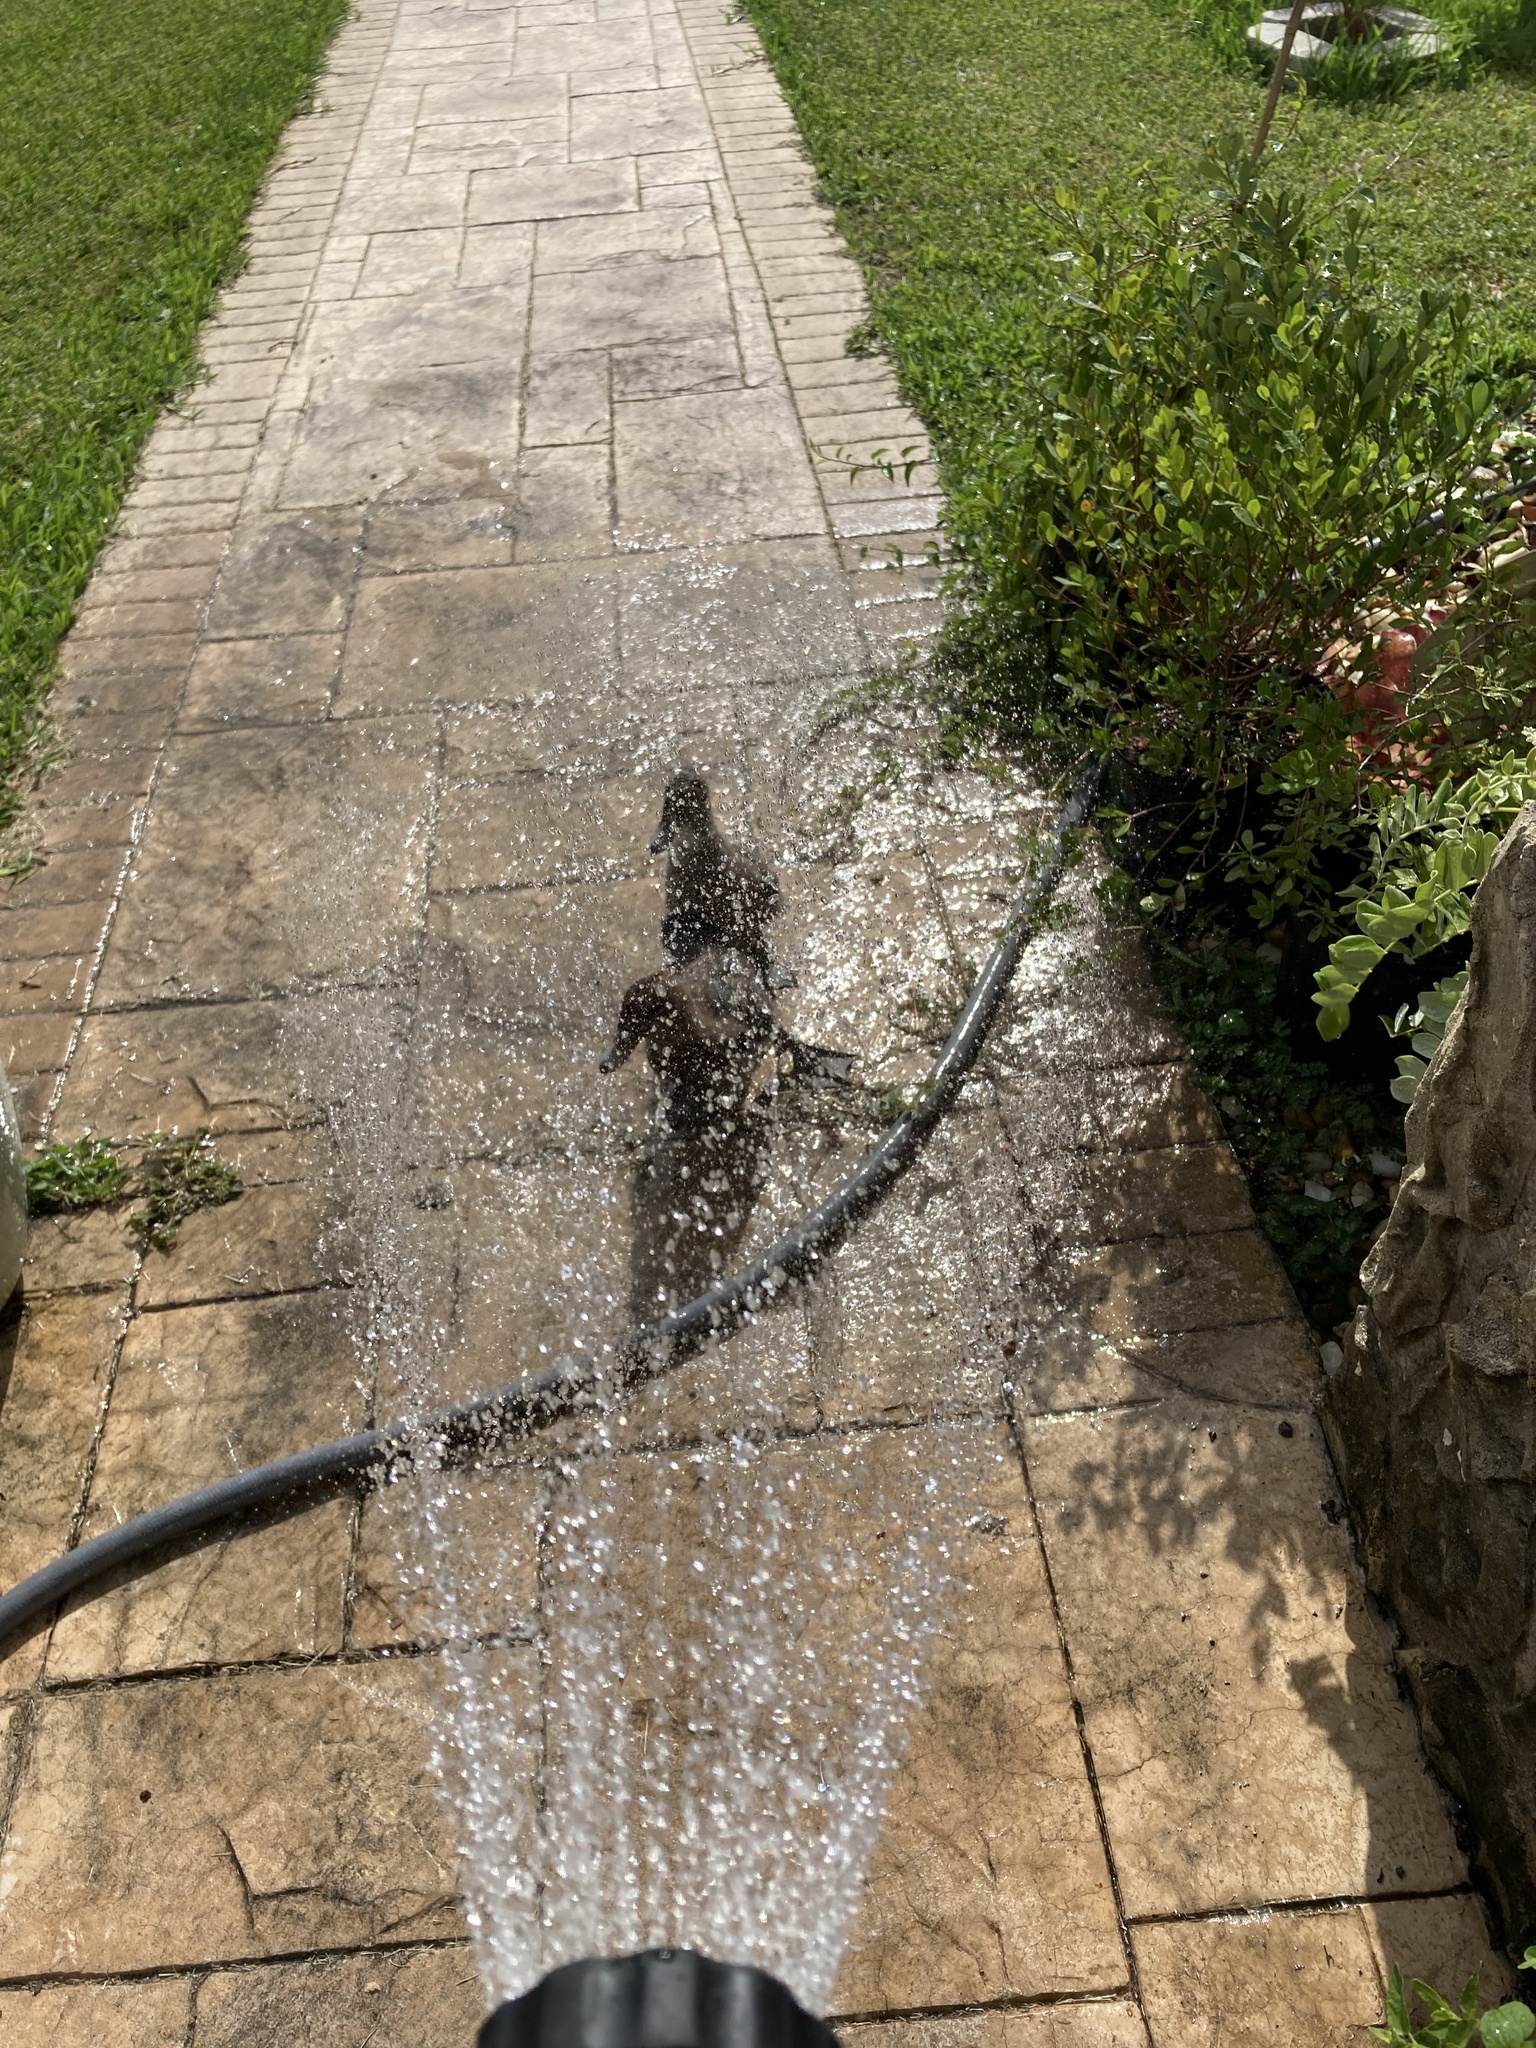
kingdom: Animalia
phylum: Chordata
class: Aves
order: Anseriformes
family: Anatidae
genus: Cairina
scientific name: Cairina moschata
